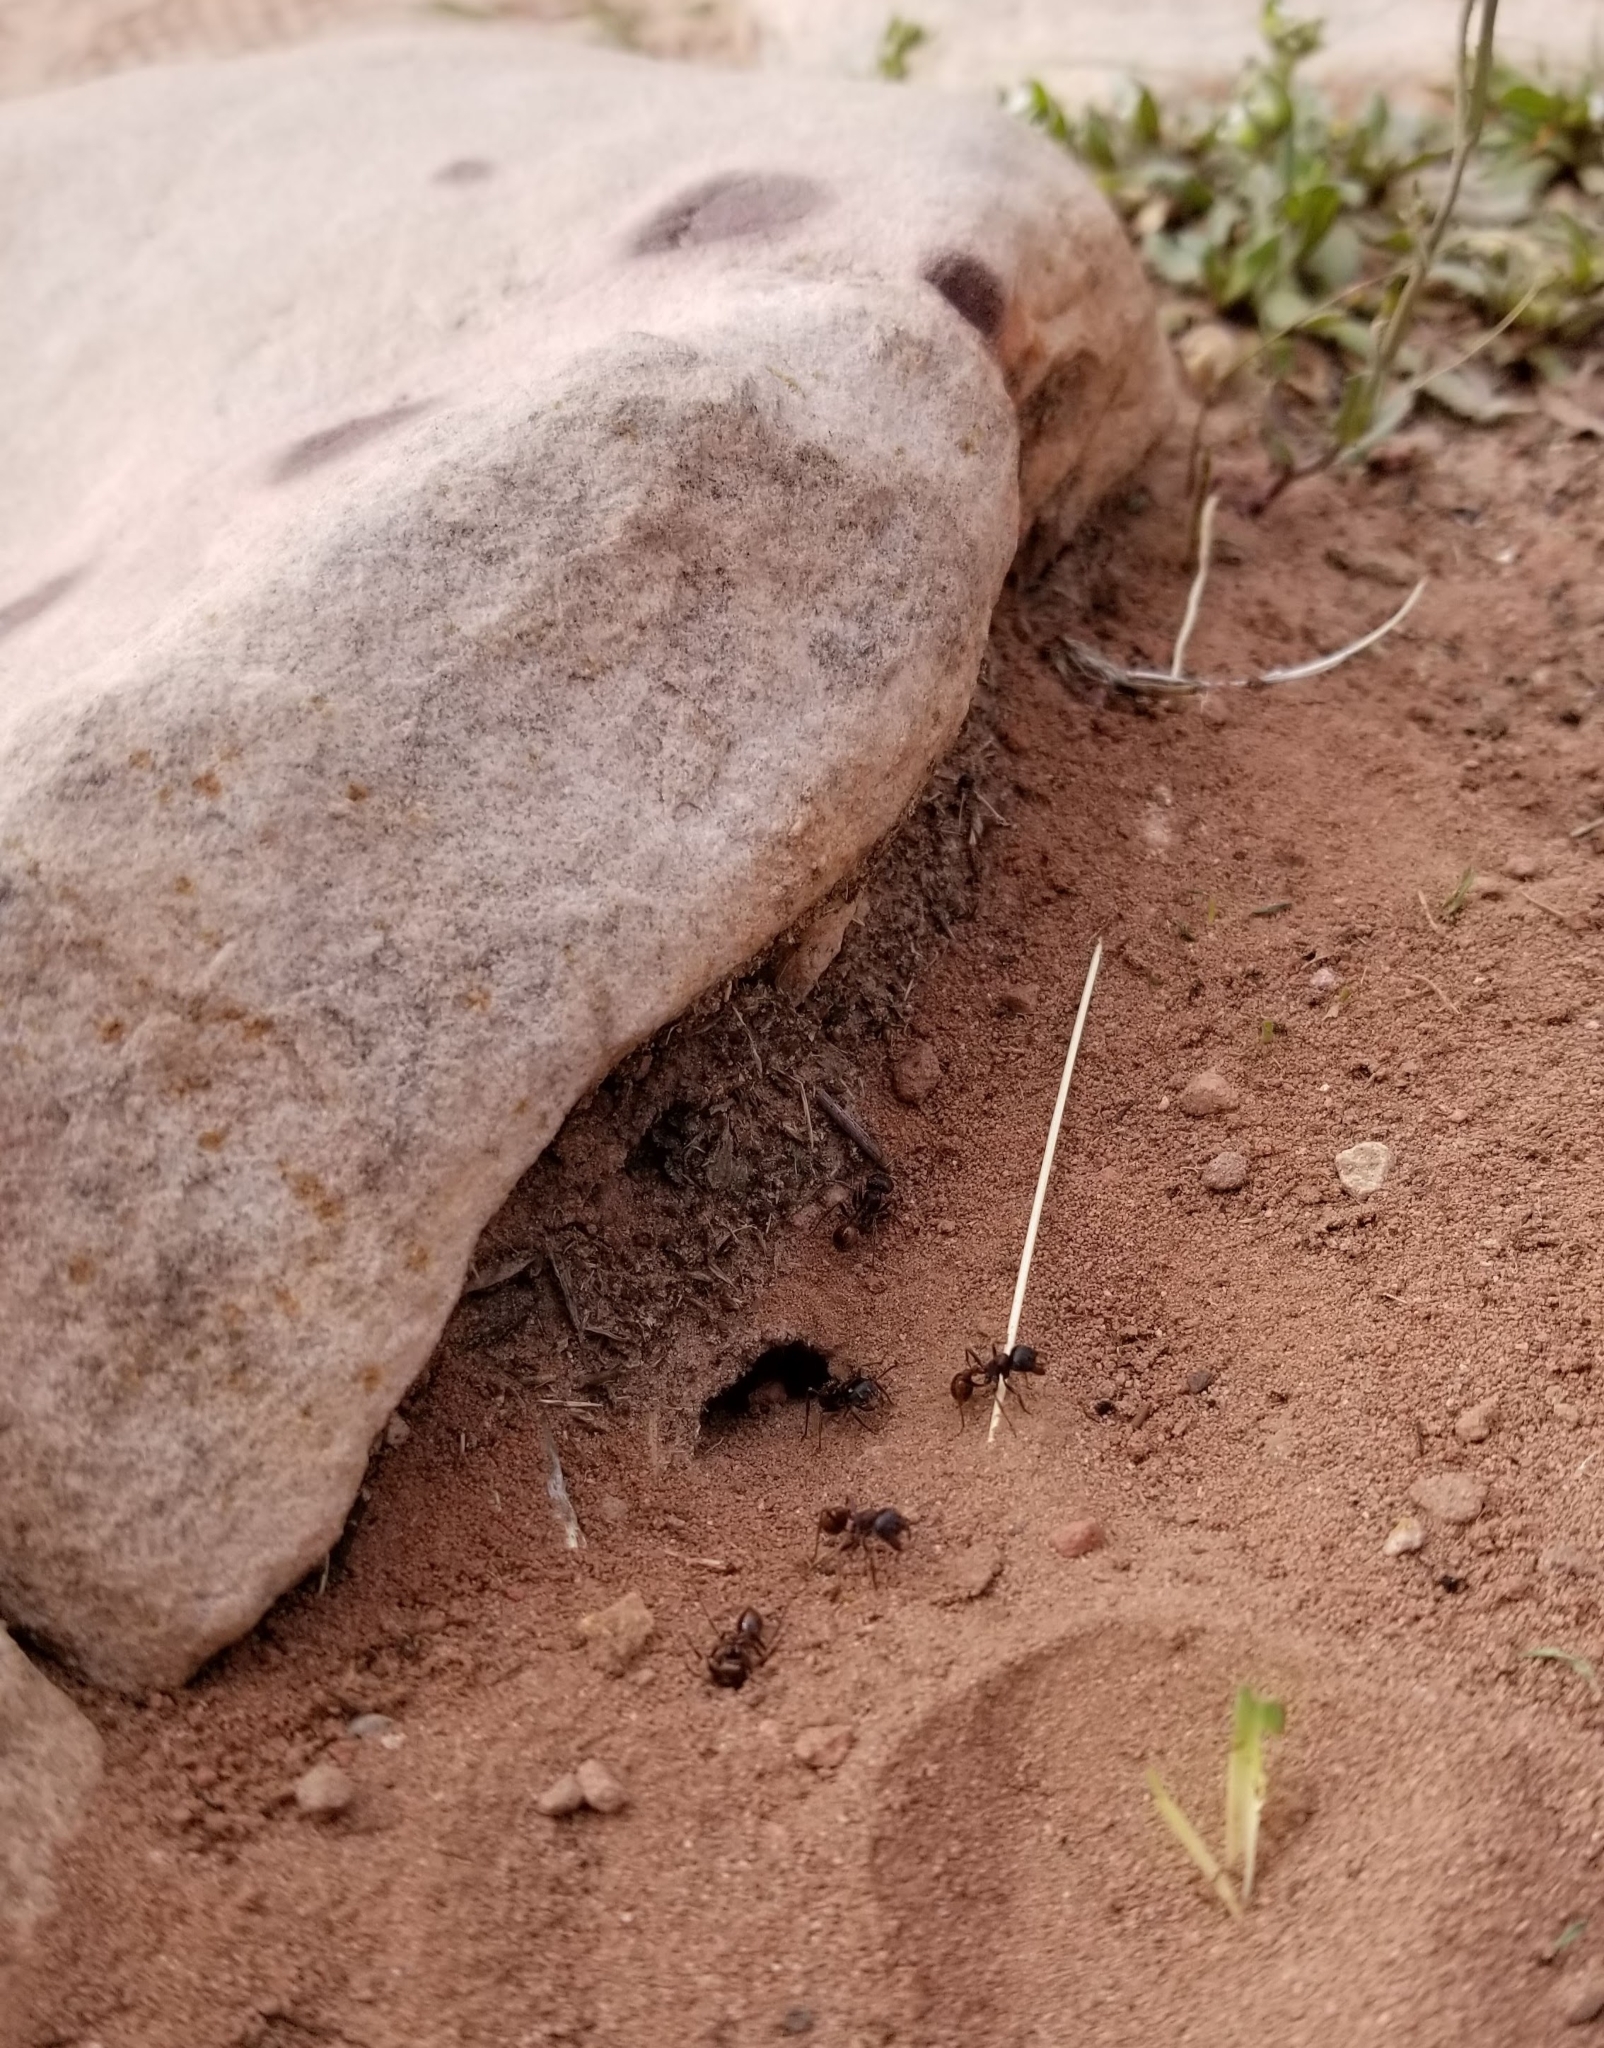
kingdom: Animalia
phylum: Arthropoda
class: Insecta
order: Hymenoptera
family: Formicidae
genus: Pogonomyrmex
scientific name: Pogonomyrmex rugosus
